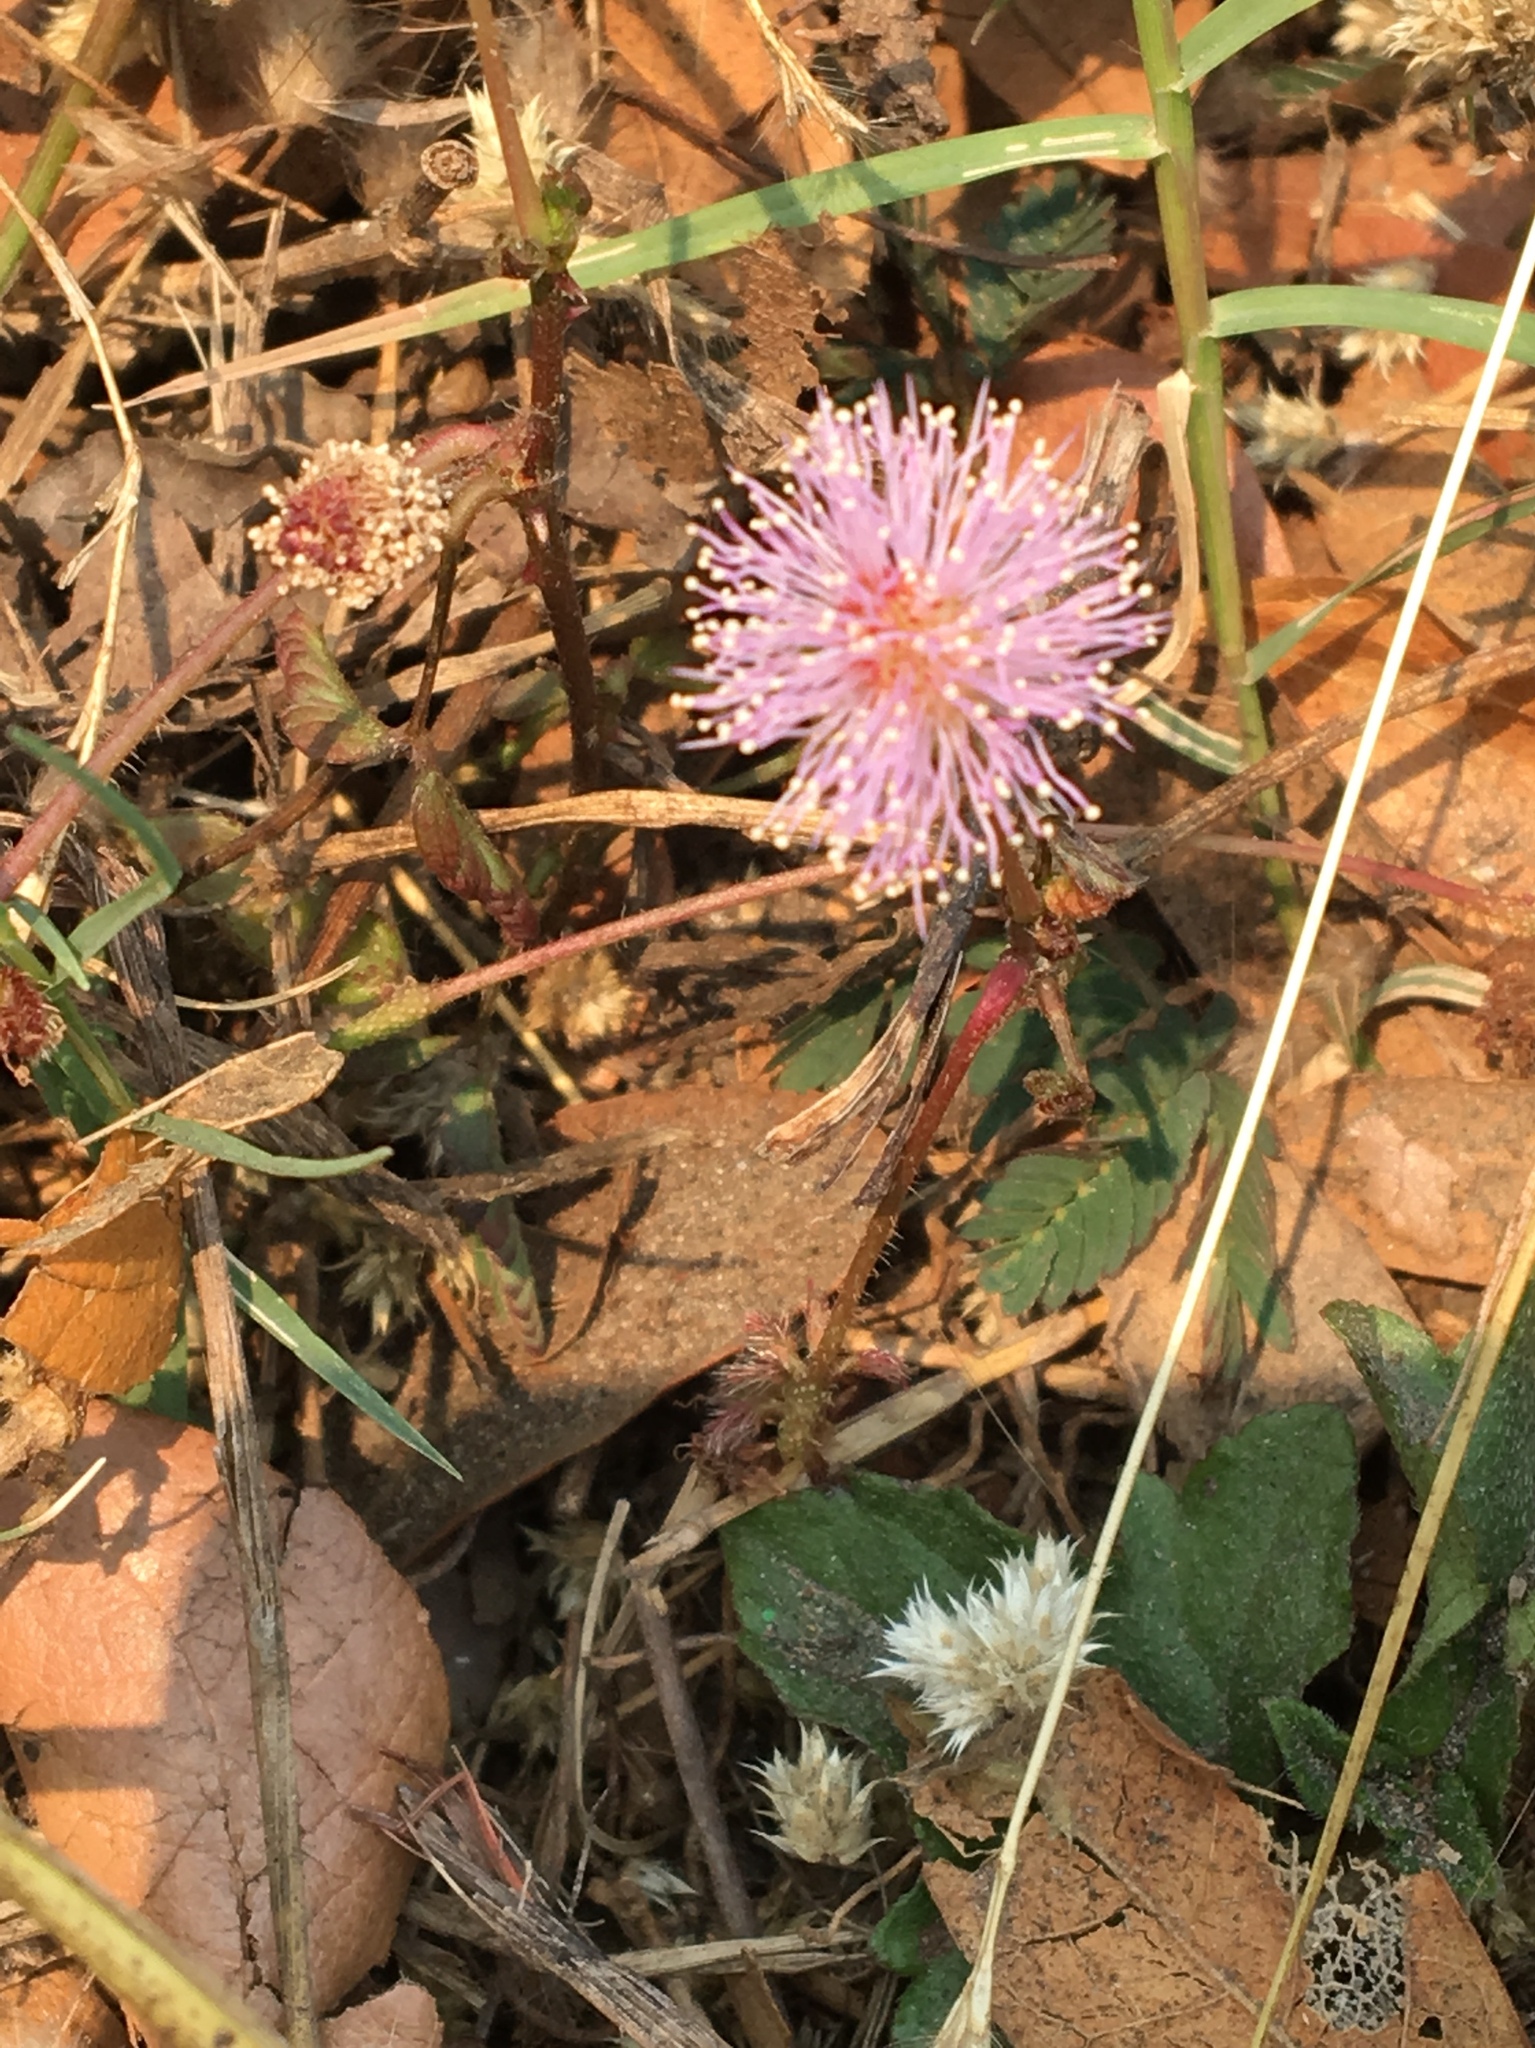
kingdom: Plantae
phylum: Tracheophyta
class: Magnoliopsida
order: Fabales
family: Fabaceae
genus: Mimosa
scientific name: Mimosa pudica
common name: Sensitive plant
